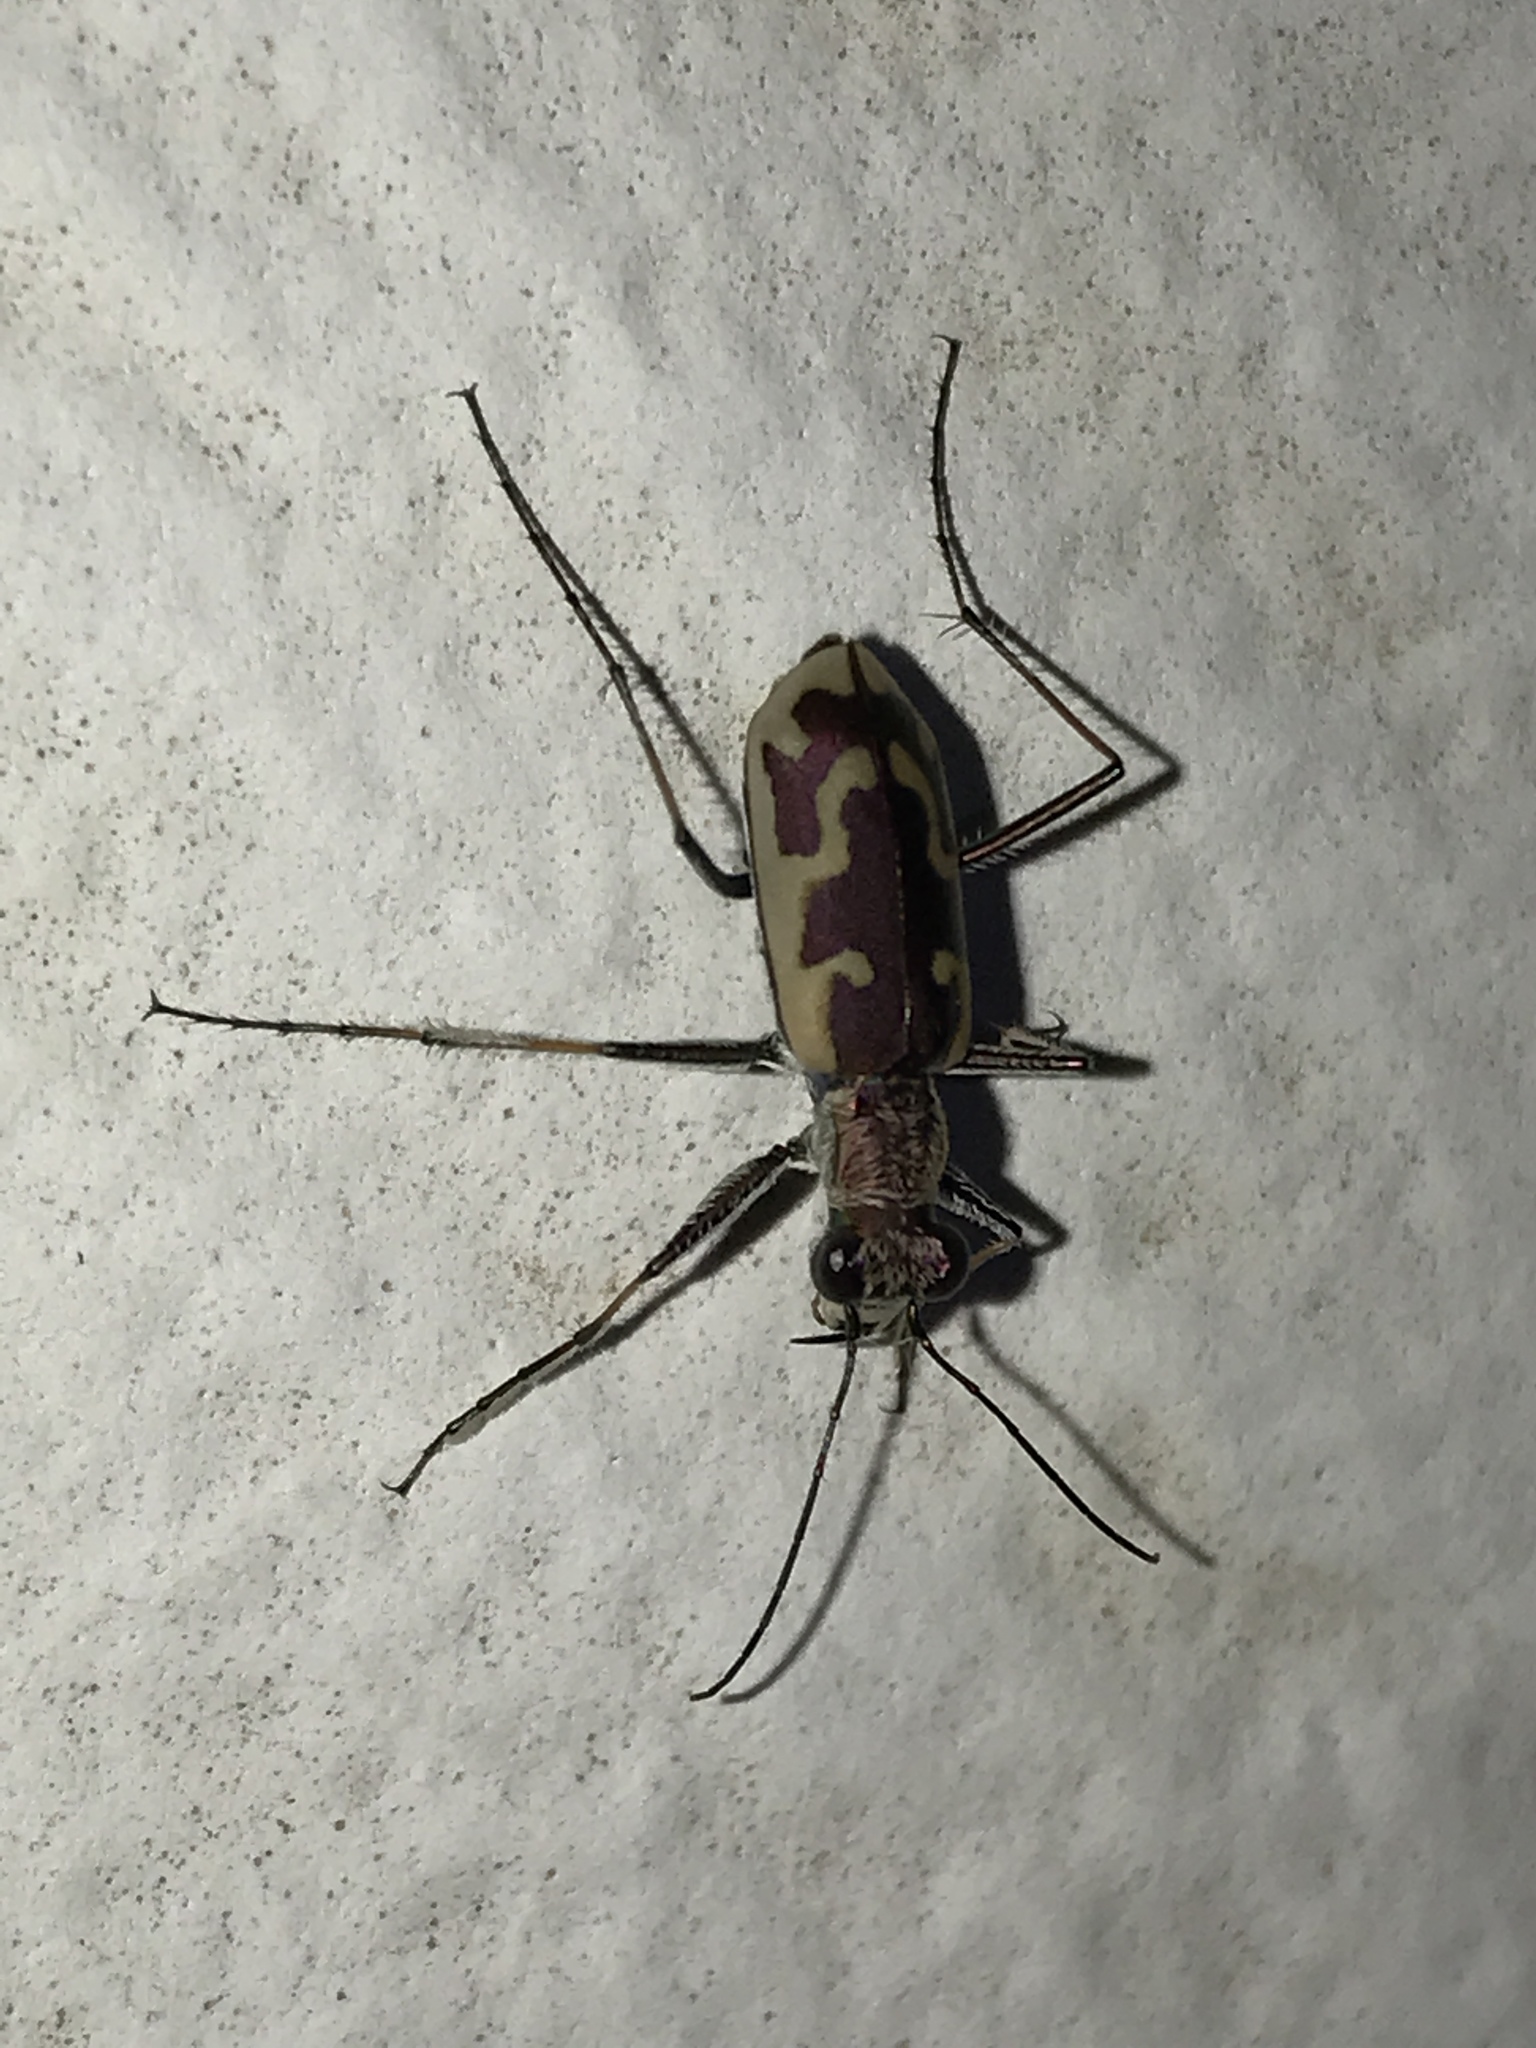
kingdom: Animalia
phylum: Arthropoda
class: Insecta
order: Coleoptera
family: Carabidae
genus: Ellipsoptera
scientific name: Ellipsoptera rubicunda
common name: Aridland tiger beetle
